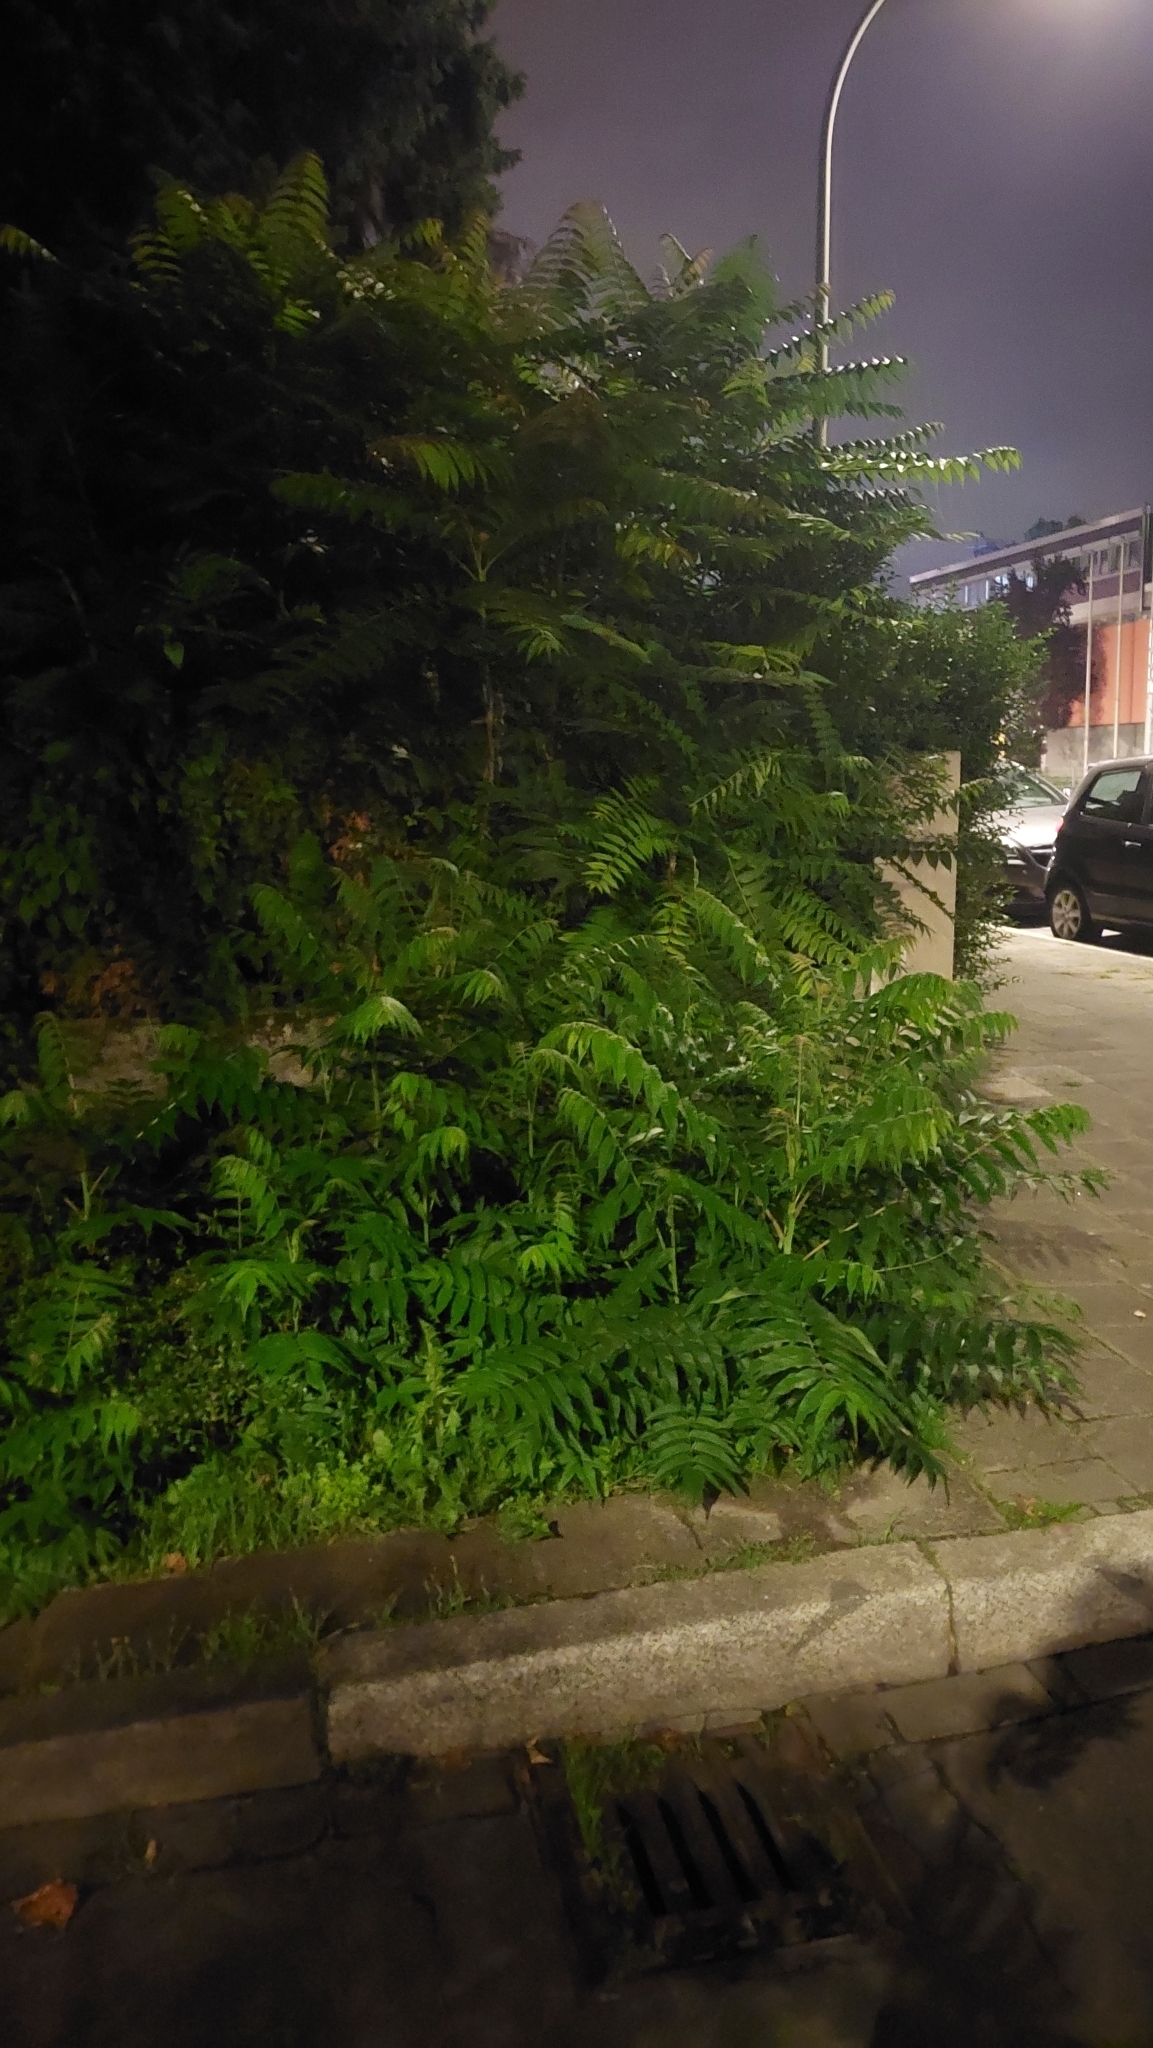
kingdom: Plantae
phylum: Tracheophyta
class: Magnoliopsida
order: Sapindales
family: Simaroubaceae
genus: Ailanthus
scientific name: Ailanthus altissima
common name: Tree-of-heaven
